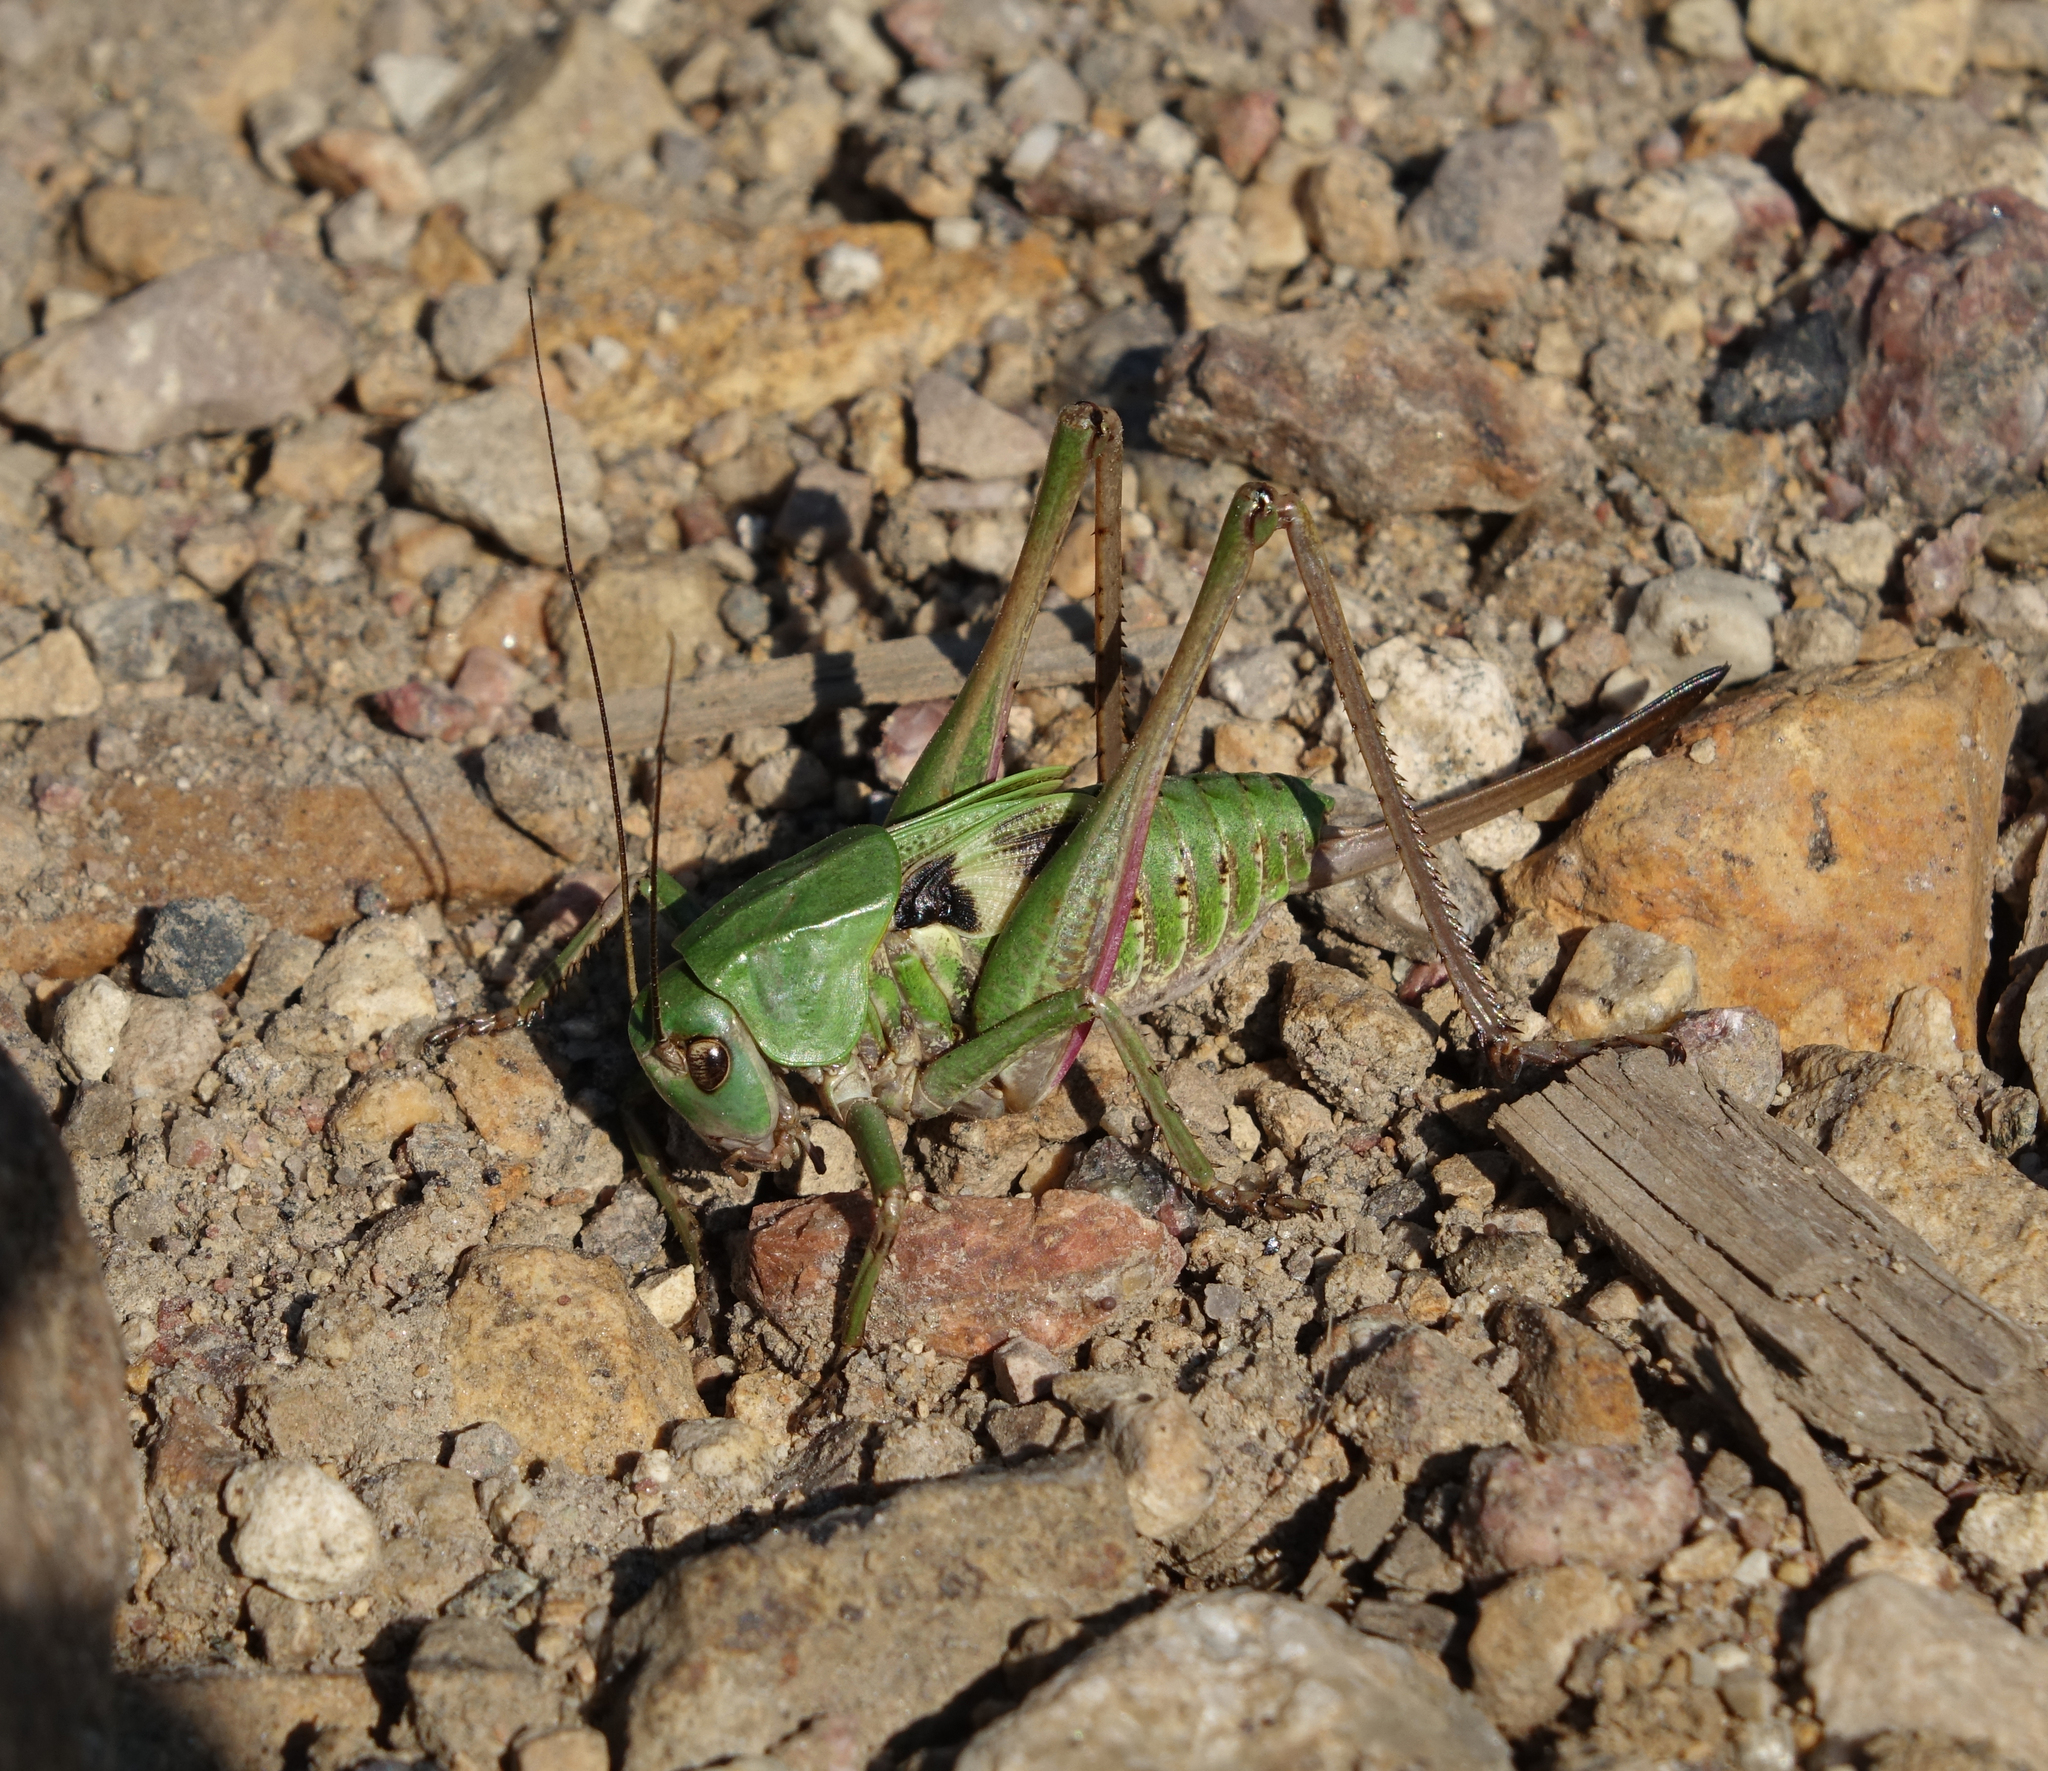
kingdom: Animalia
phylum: Arthropoda
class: Insecta
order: Orthoptera
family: Tettigoniidae
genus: Decticus
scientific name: Decticus verrucivorus
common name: Wart-biter
